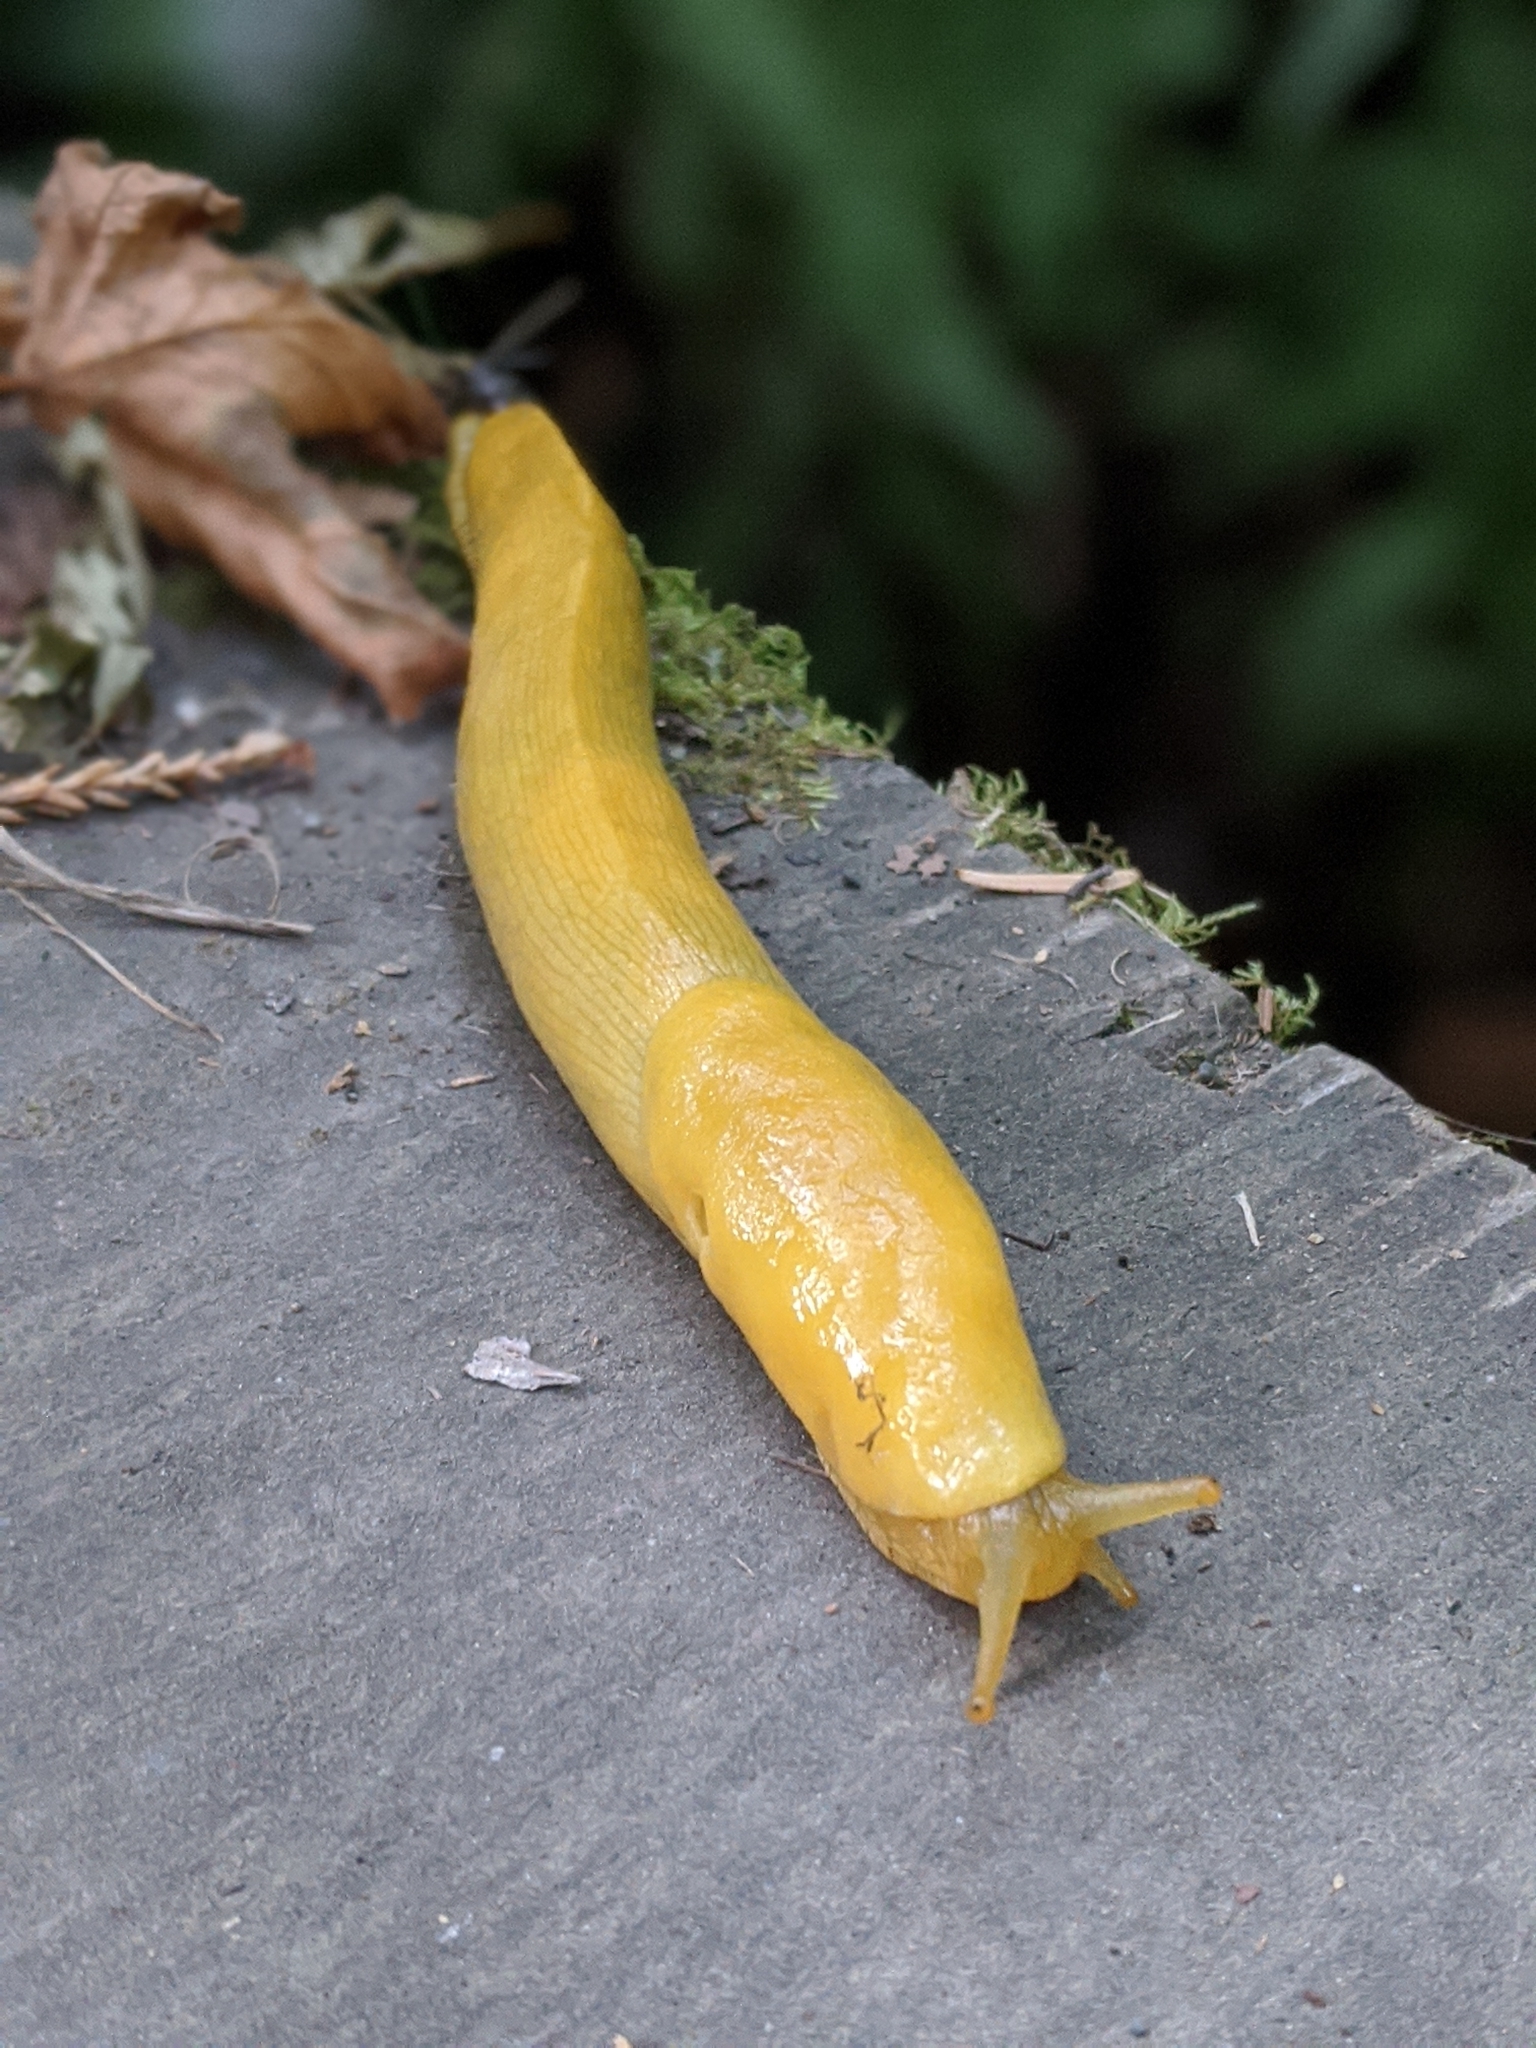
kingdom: Animalia
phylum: Mollusca
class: Gastropoda
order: Stylommatophora
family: Ariolimacidae
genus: Ariolimax
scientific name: Ariolimax columbianus
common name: Pacific banana slug
